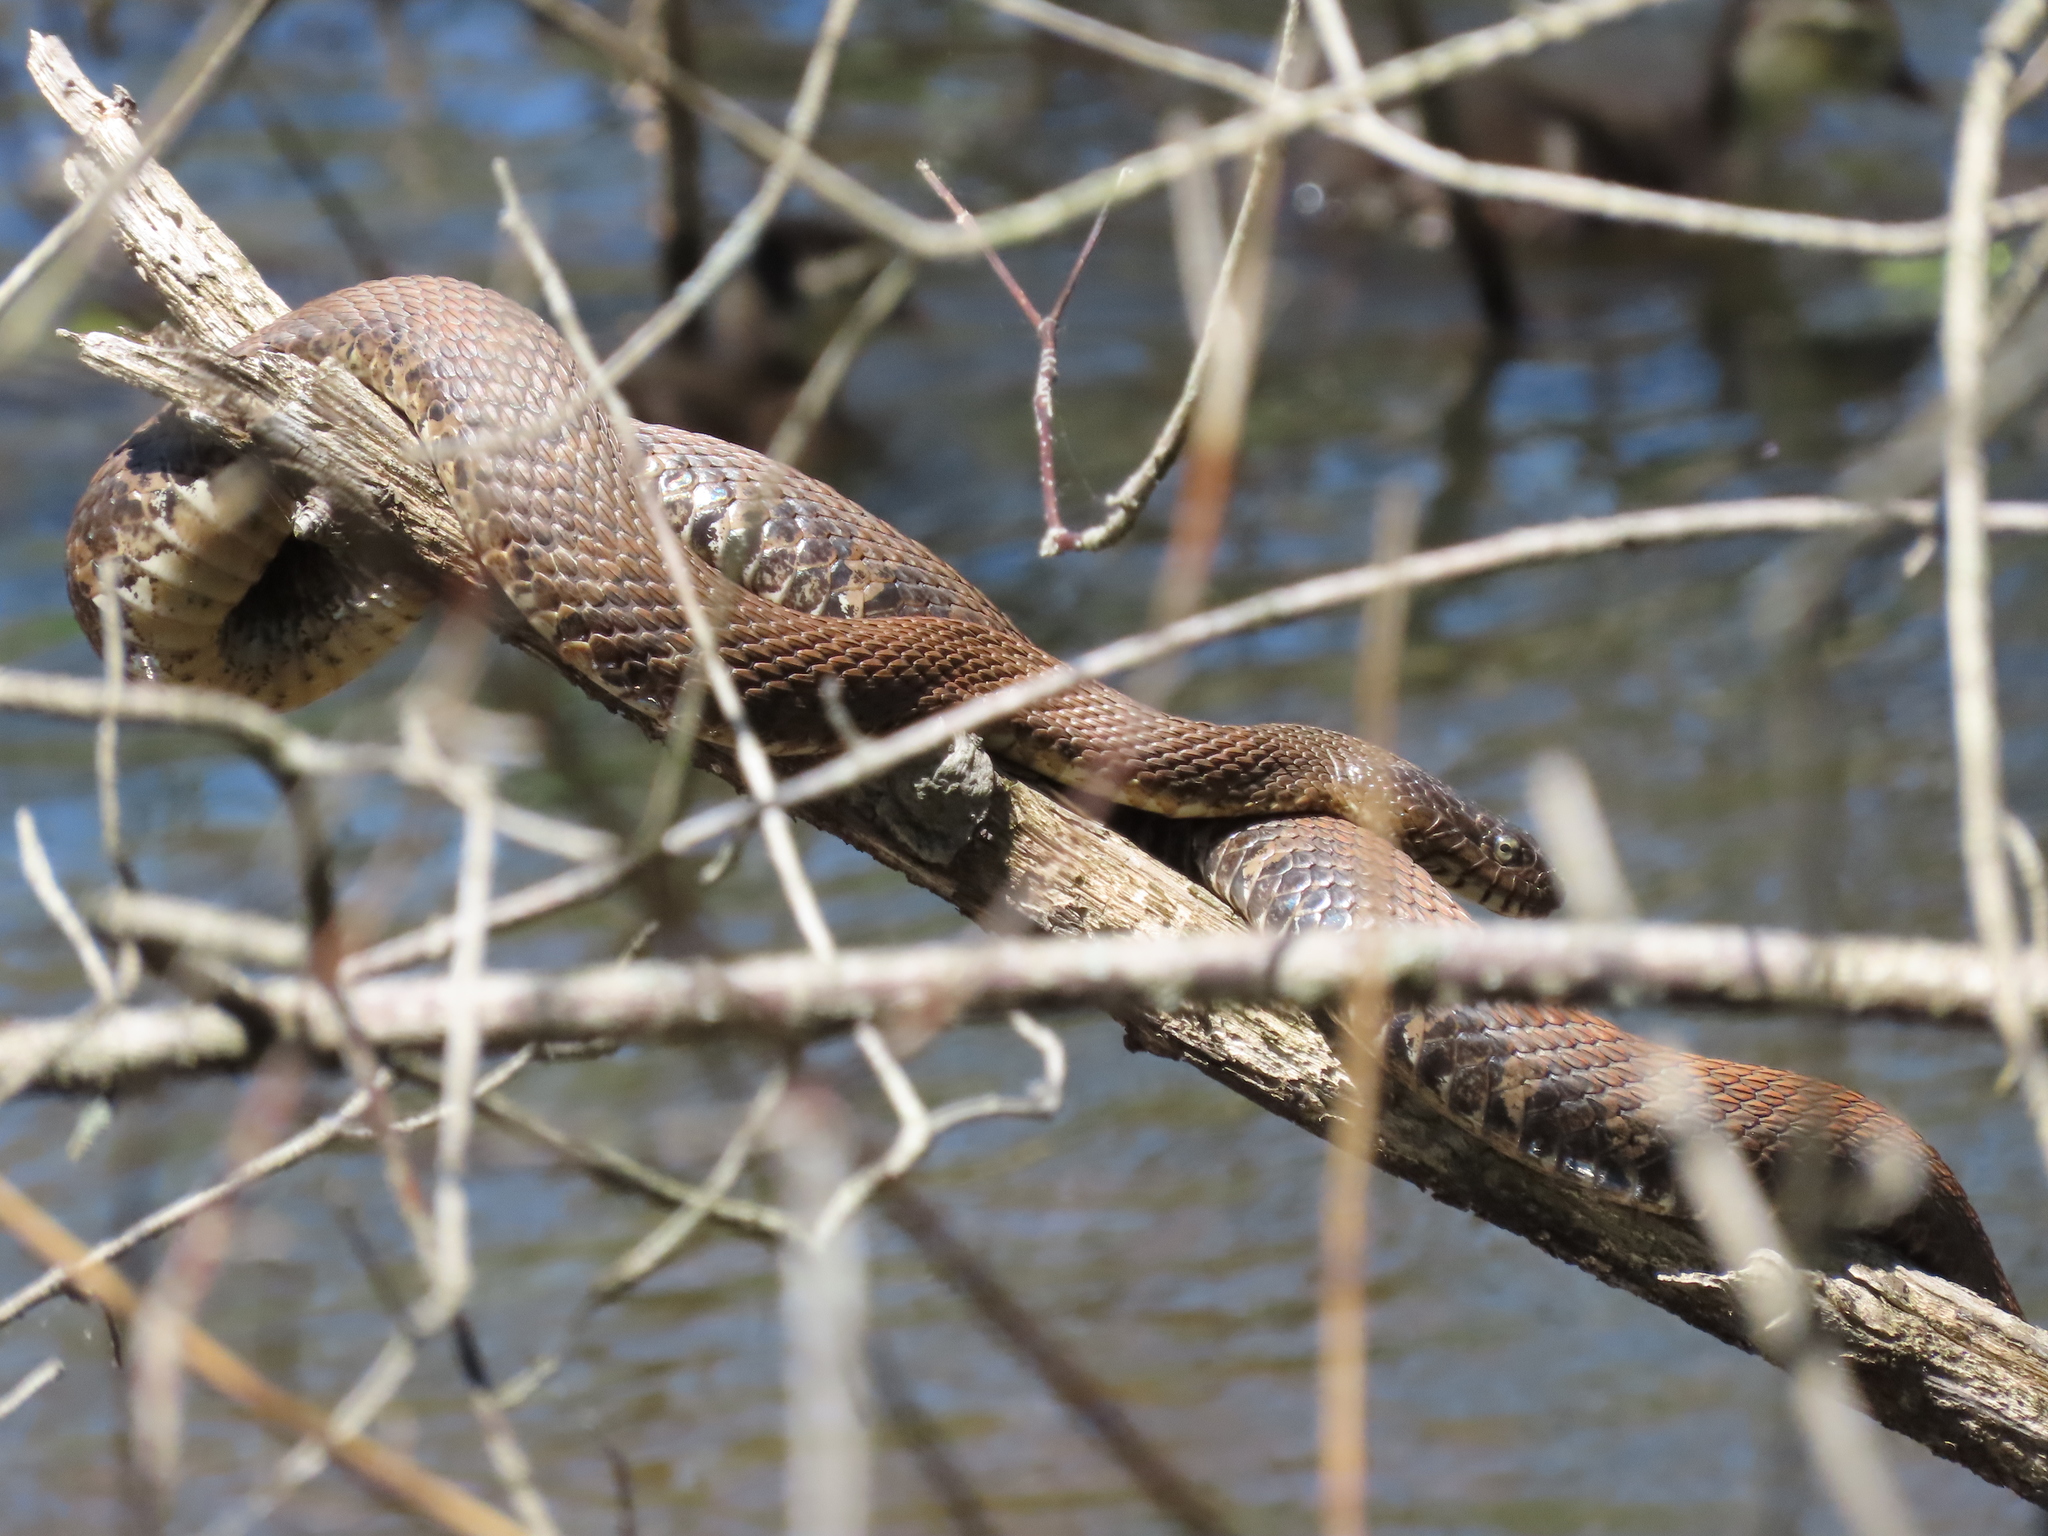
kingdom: Animalia
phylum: Chordata
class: Squamata
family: Colubridae
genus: Nerodia
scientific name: Nerodia sipedon
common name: Northern water snake
